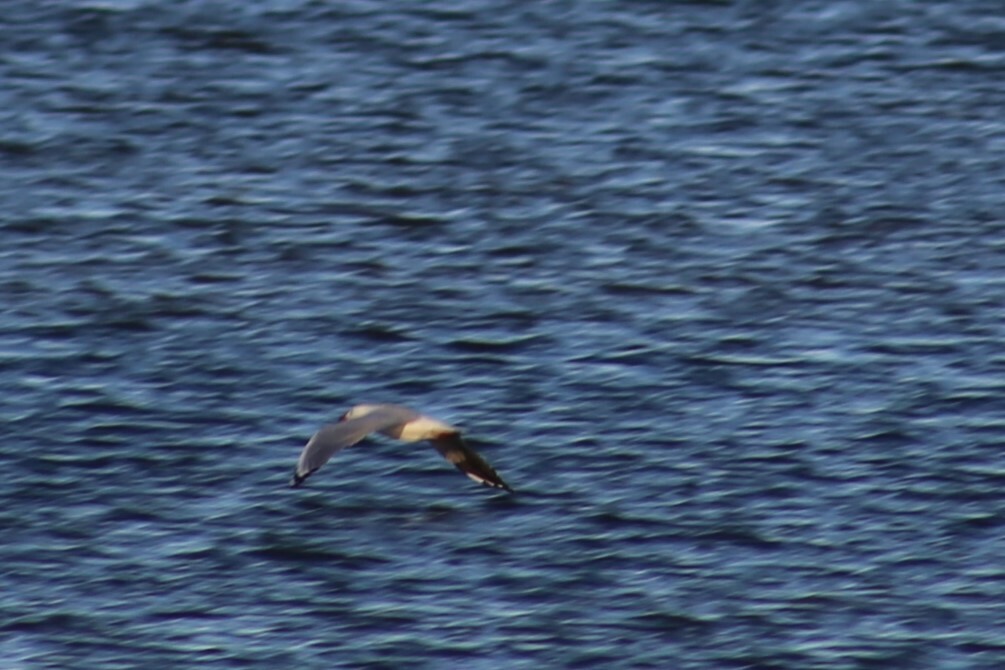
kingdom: Animalia
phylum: Chordata
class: Aves
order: Charadriiformes
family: Laridae
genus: Chroicocephalus
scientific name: Chroicocephalus novaehollandiae
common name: Silver gull
